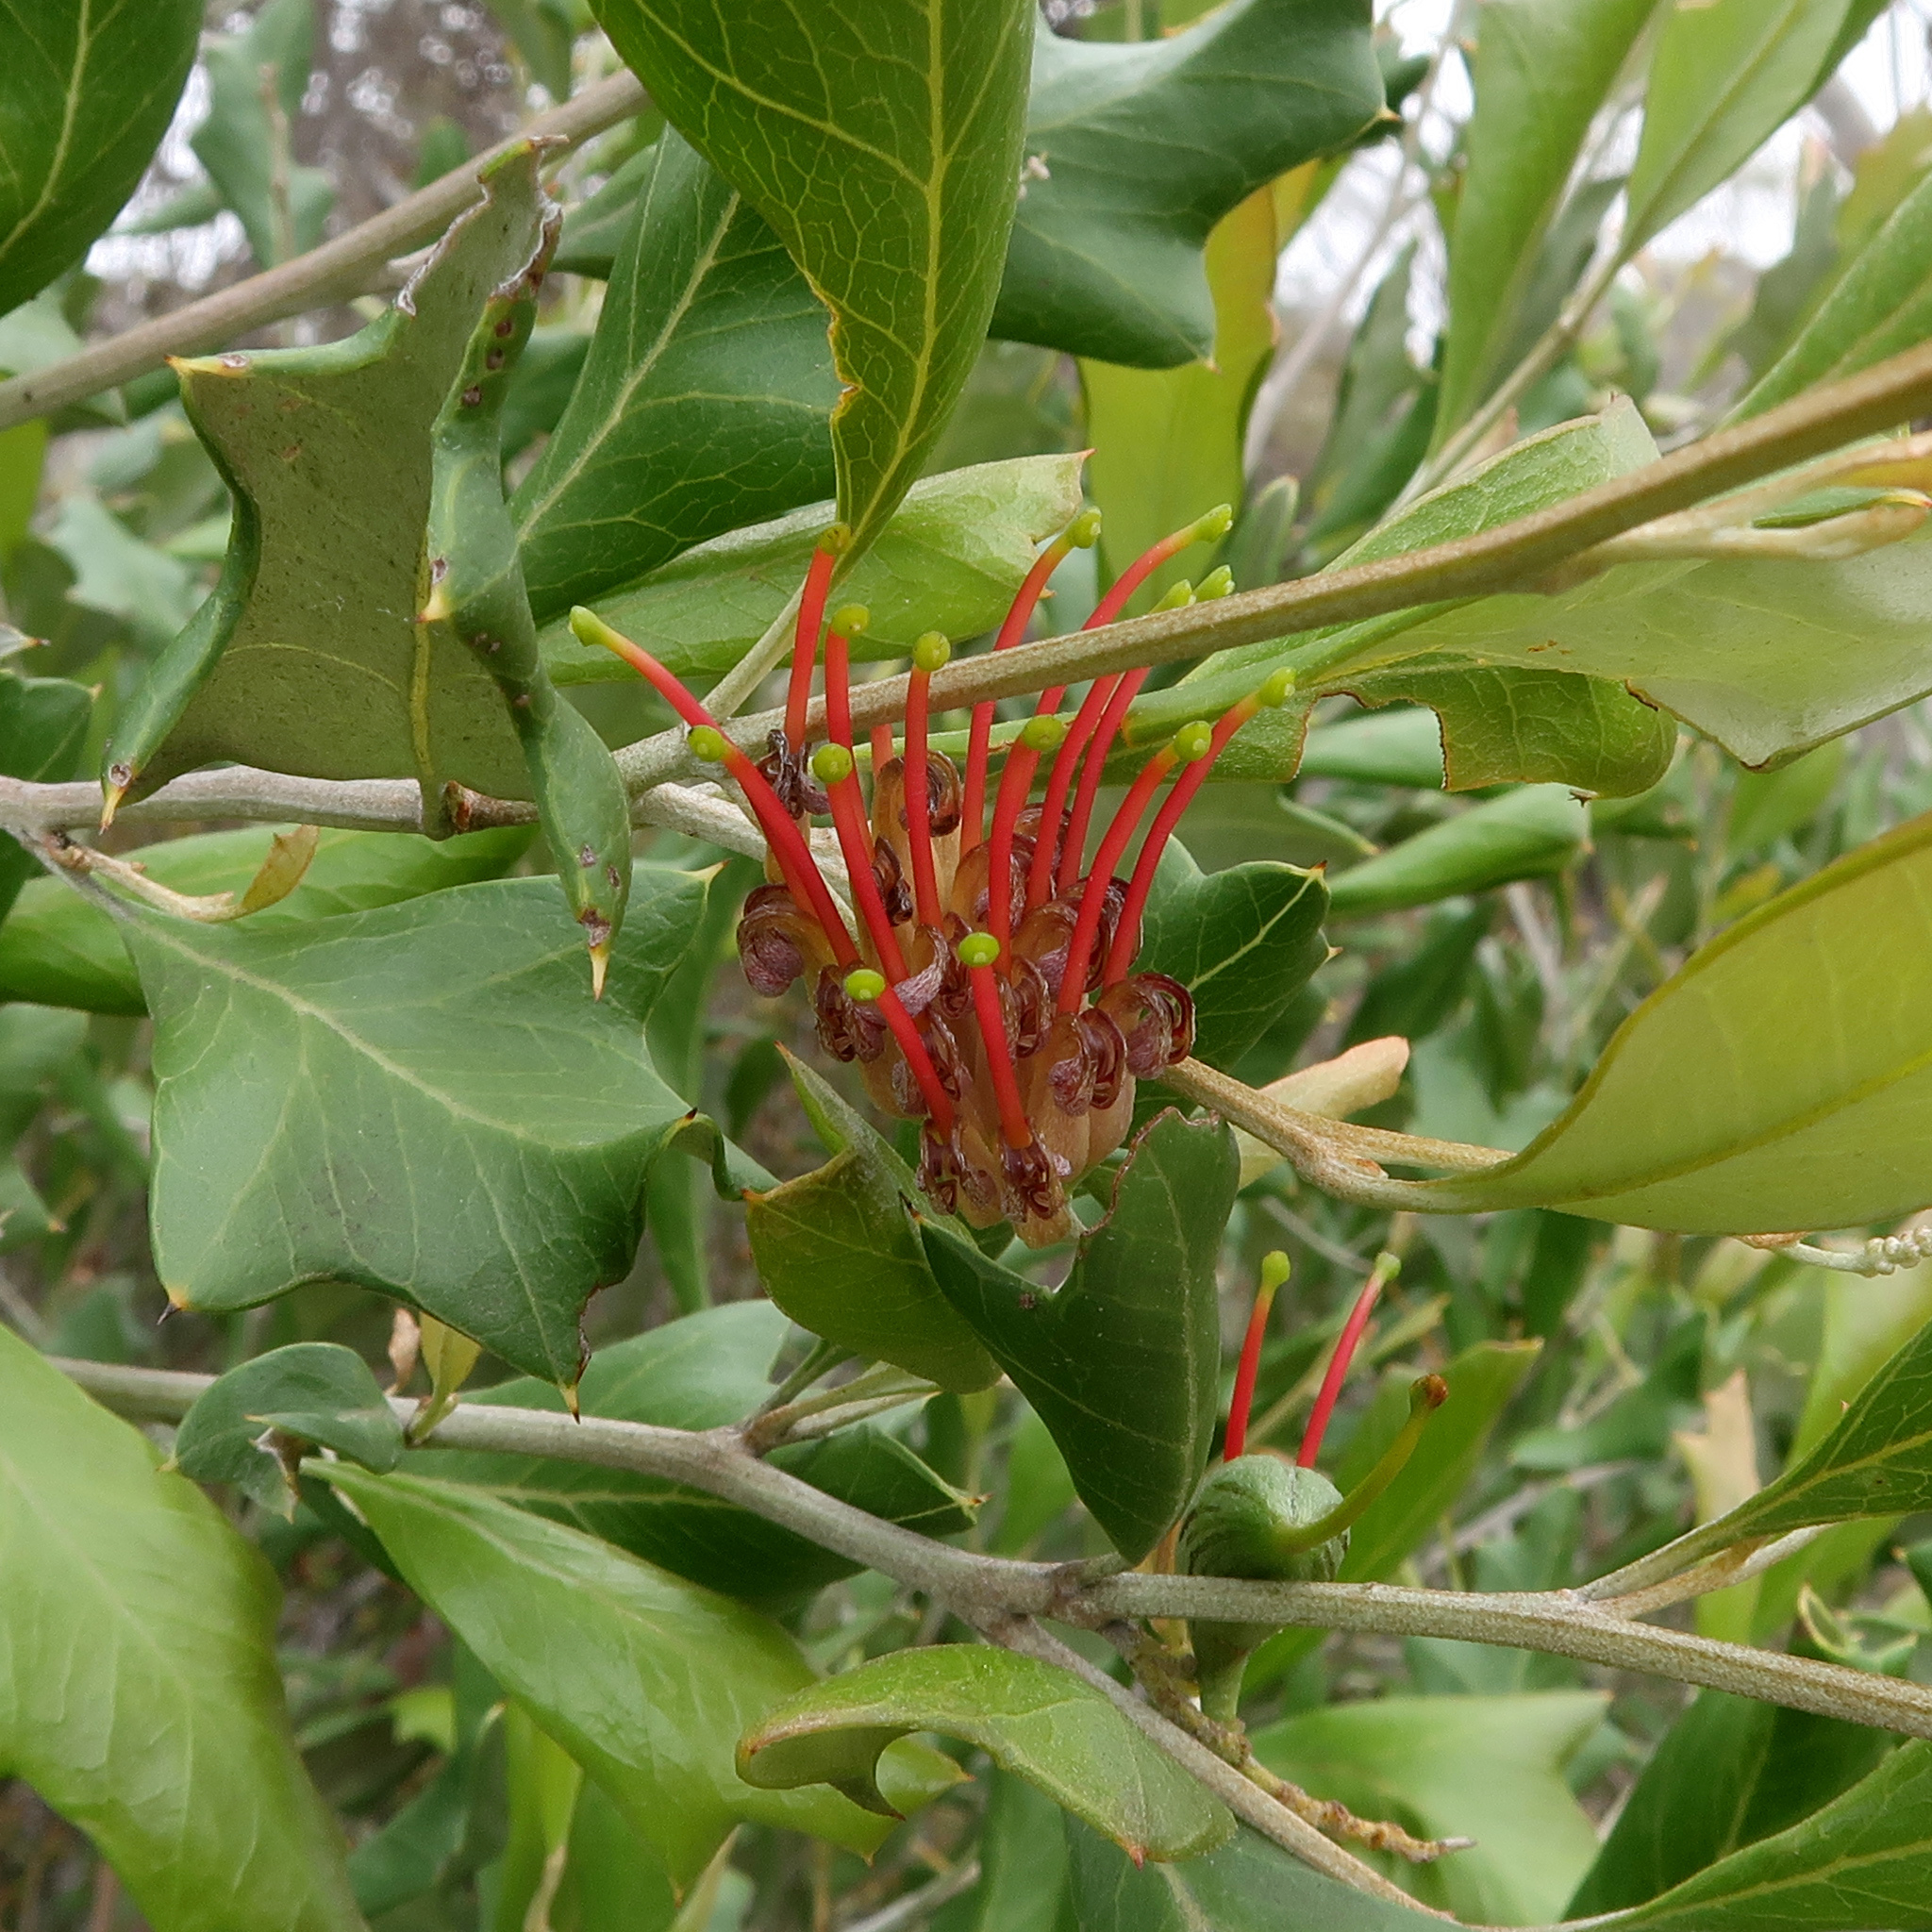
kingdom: Plantae
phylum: Tracheophyta
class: Magnoliopsida
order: Proteales
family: Proteaceae
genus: Grevillea
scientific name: Grevillea ilicifolia
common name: Holly grevillea
